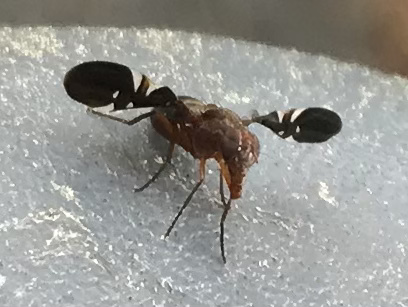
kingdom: Animalia
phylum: Arthropoda
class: Insecta
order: Diptera
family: Ulidiidae
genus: Delphinia
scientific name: Delphinia picta
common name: Common picture-winged fly
